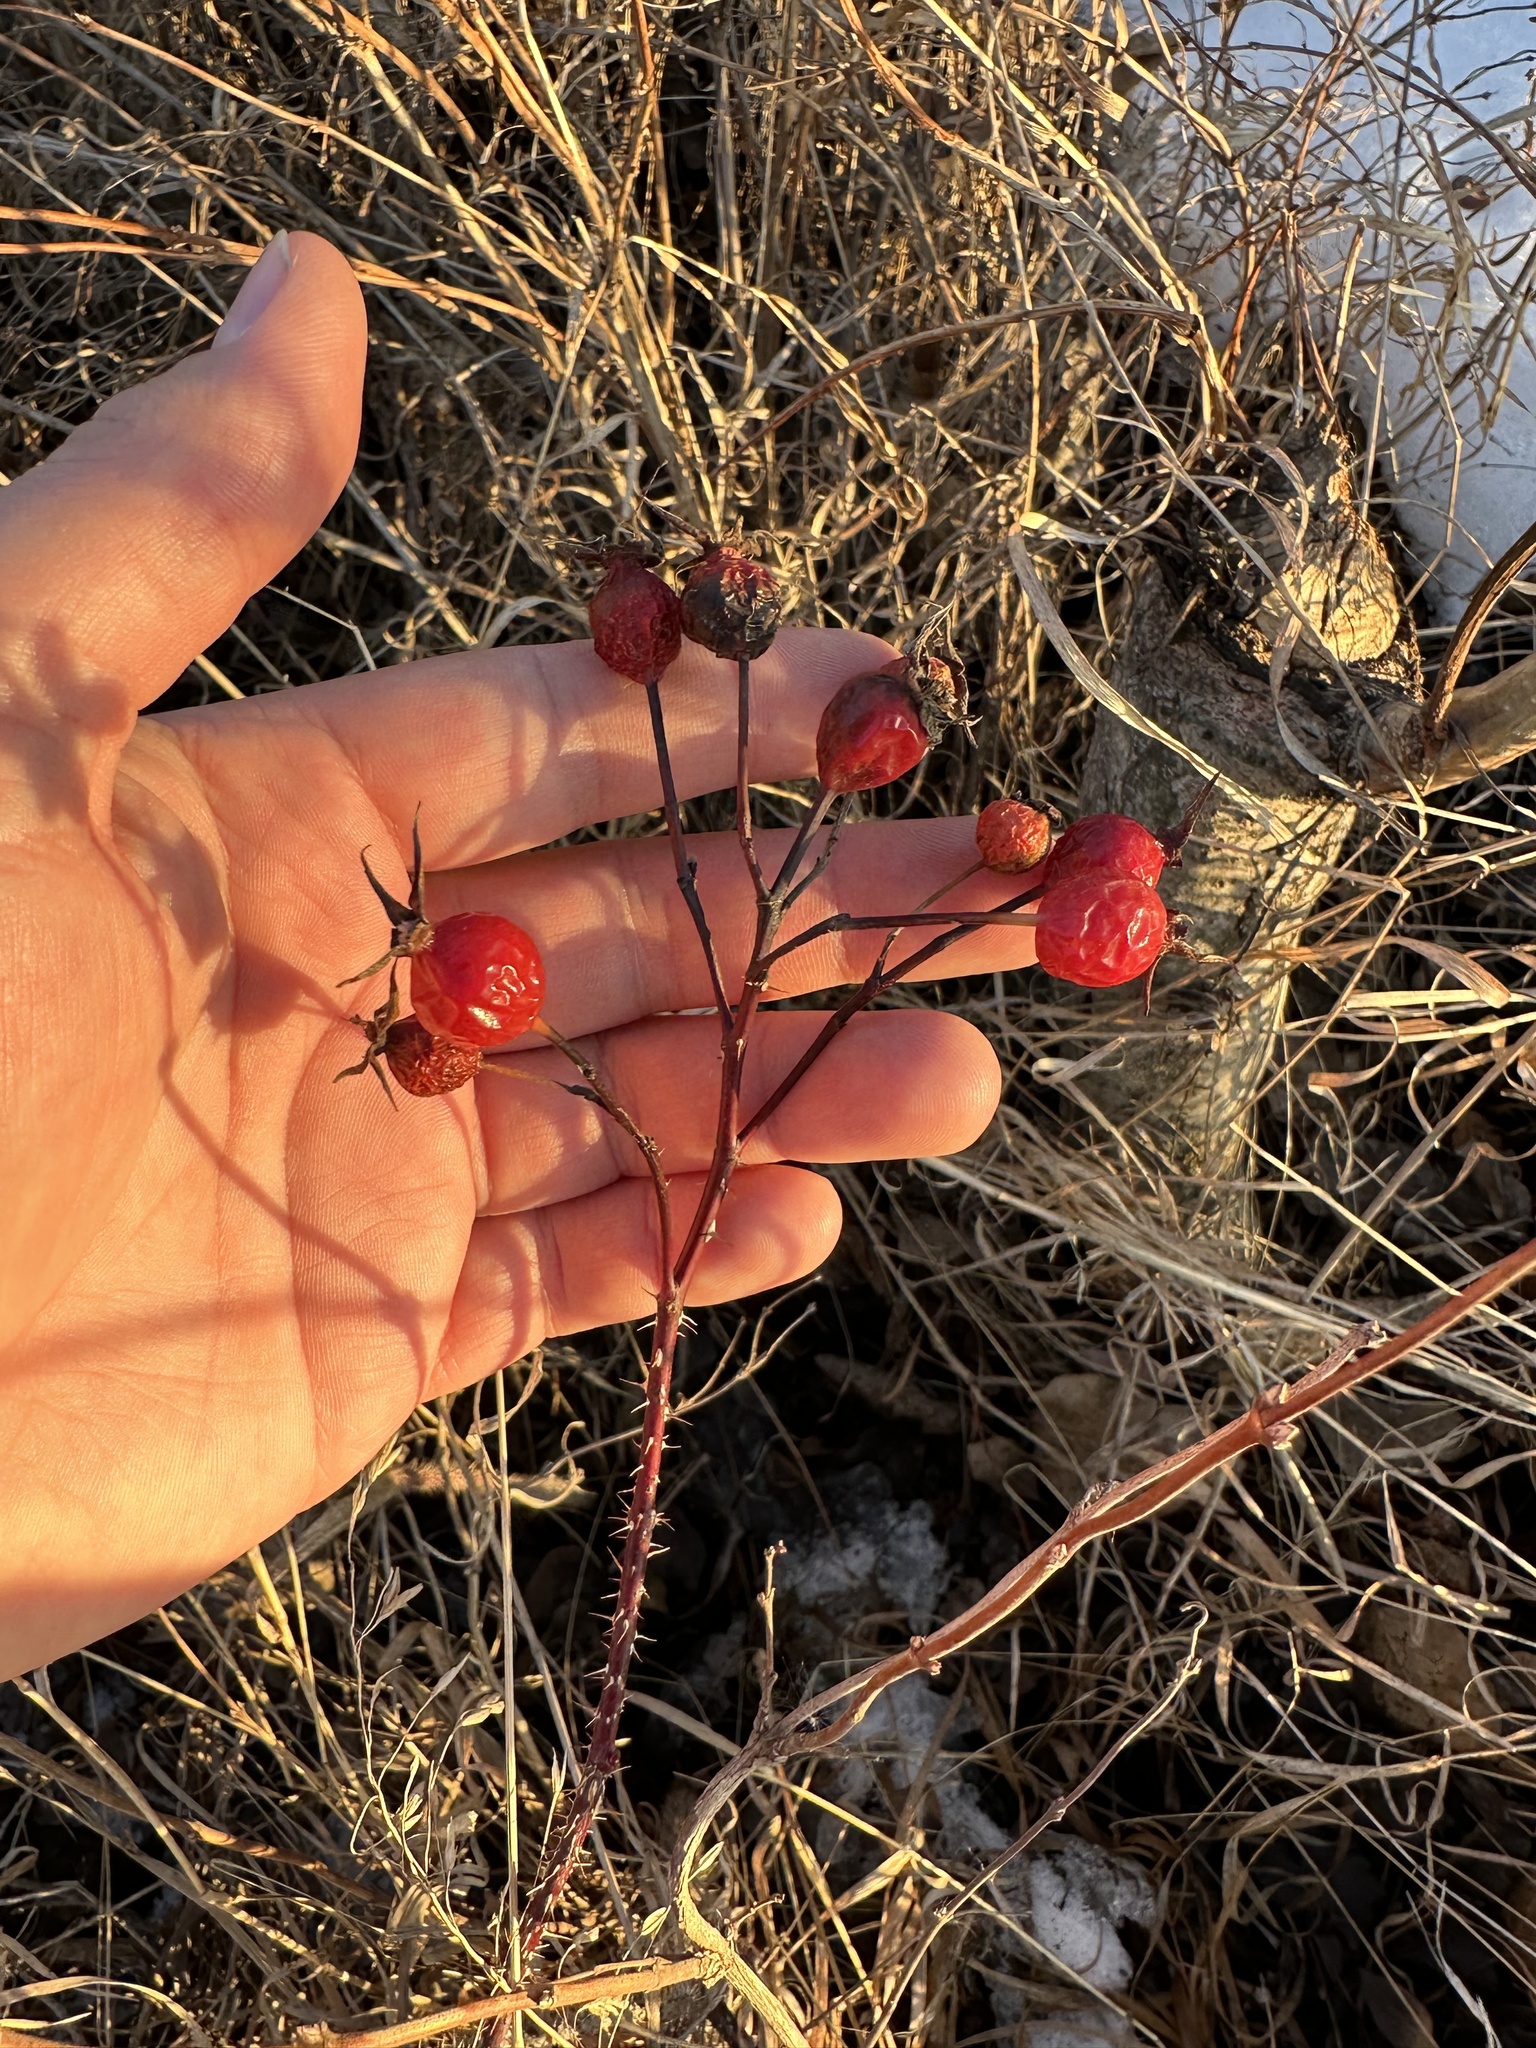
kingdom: Plantae
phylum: Tracheophyta
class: Magnoliopsida
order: Rosales
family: Rosaceae
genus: Rosa
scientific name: Rosa woodsii
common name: Woods's rose
